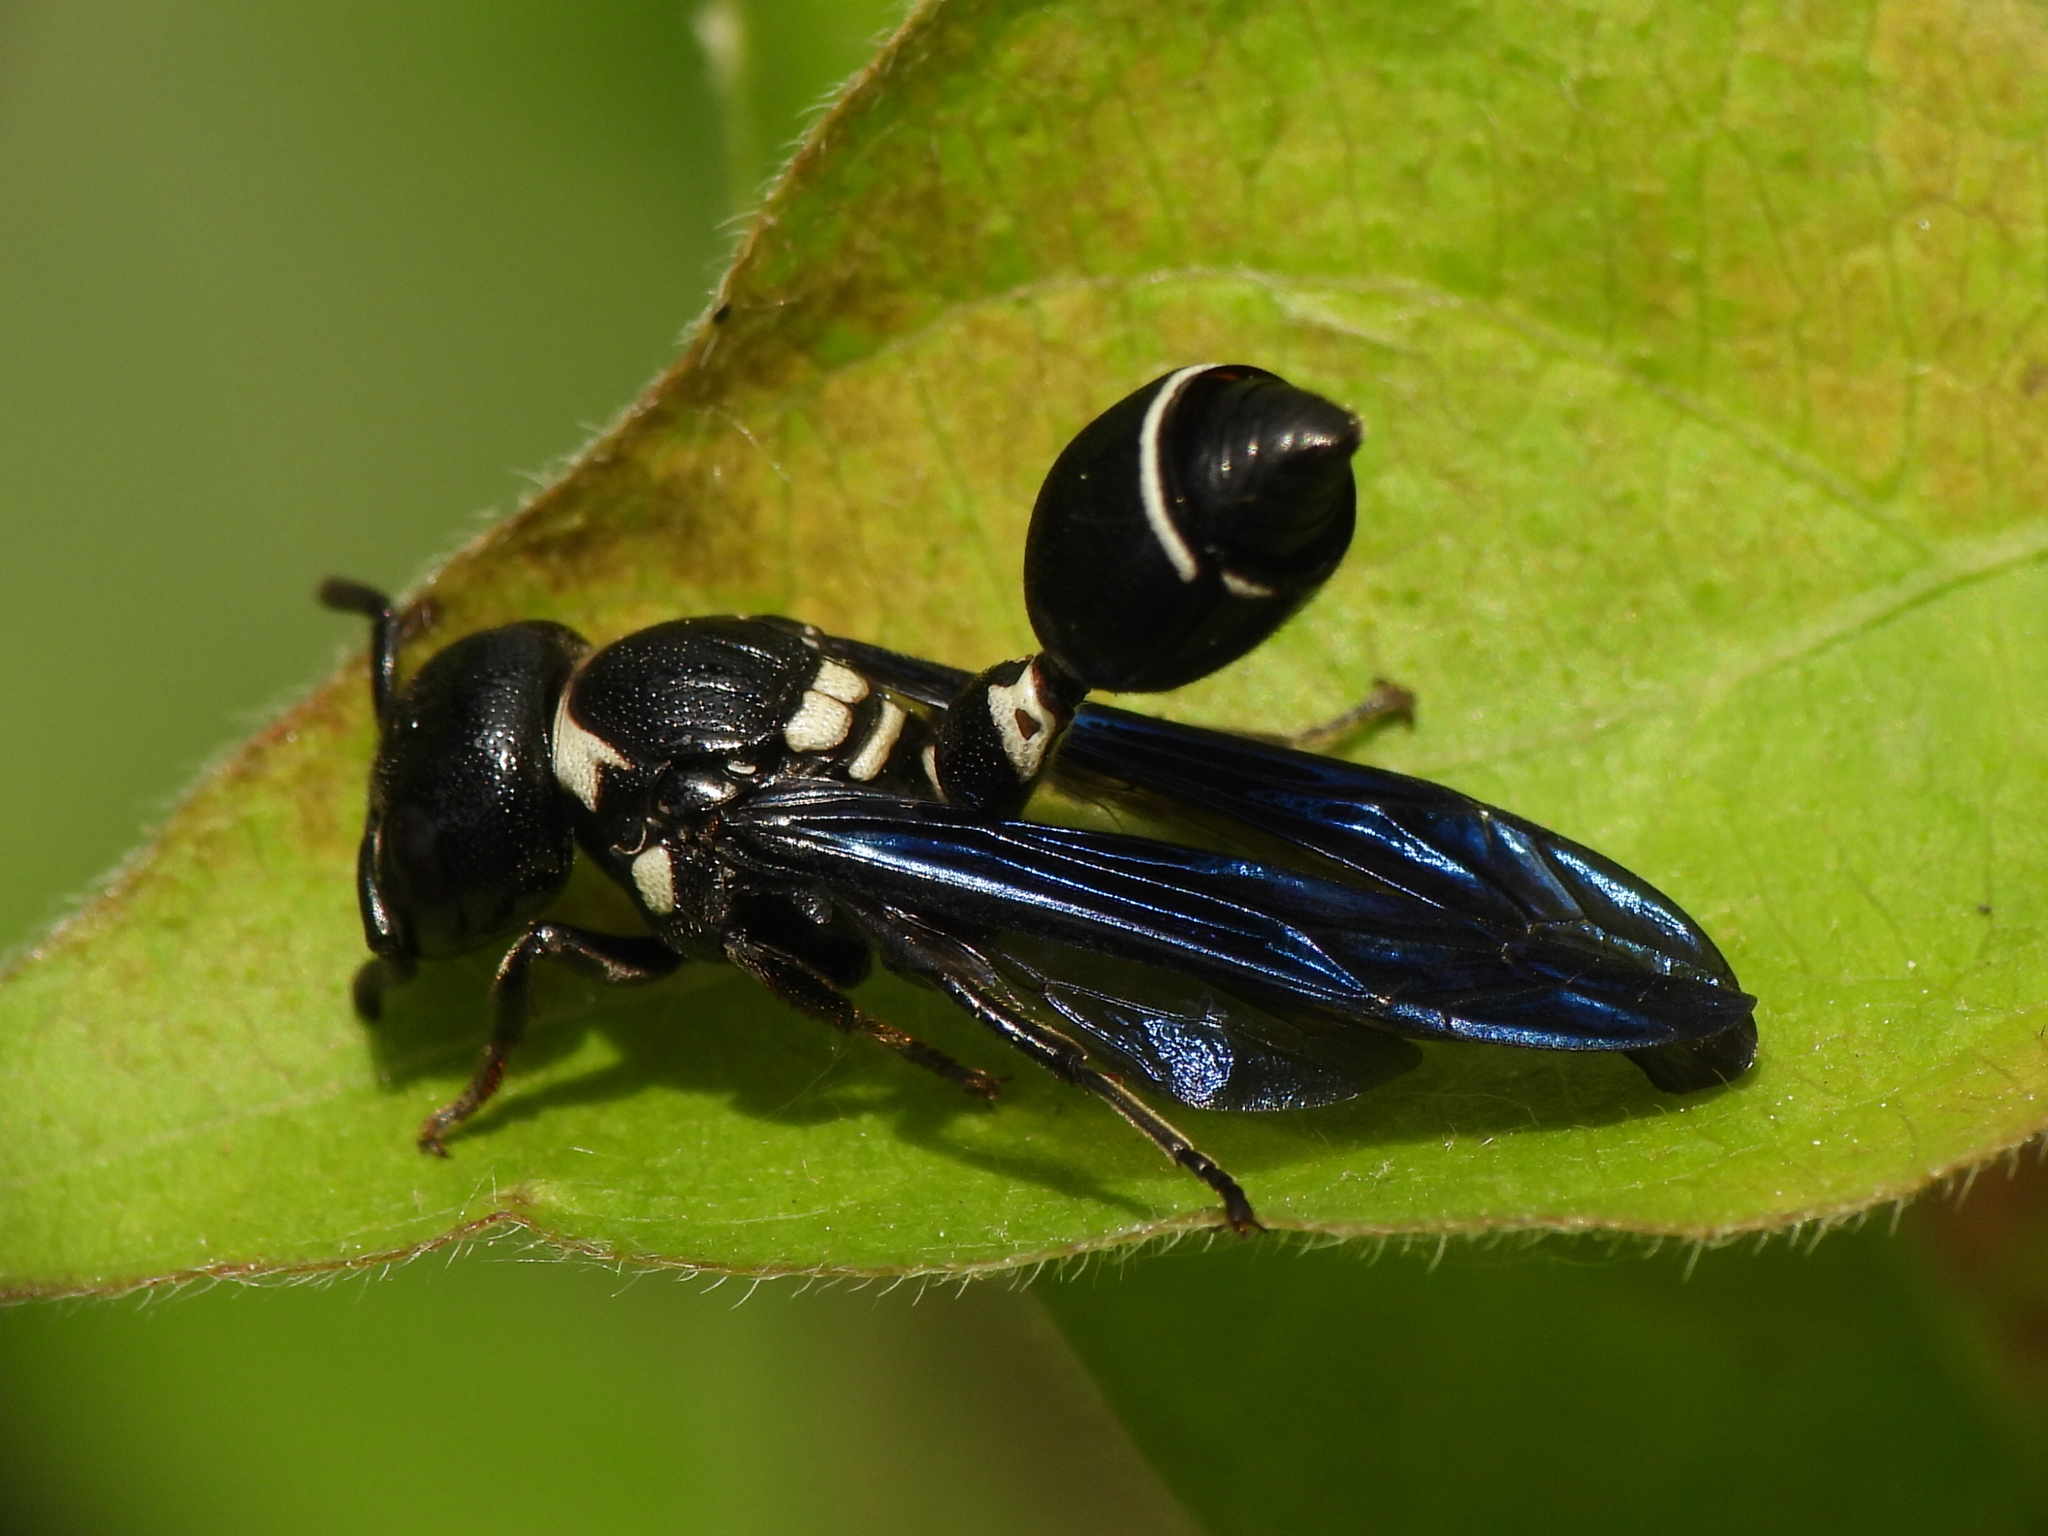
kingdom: Animalia
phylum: Arthropoda
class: Insecta
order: Hymenoptera
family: Eumenidae
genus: Zethus
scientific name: Zethus spinipes
